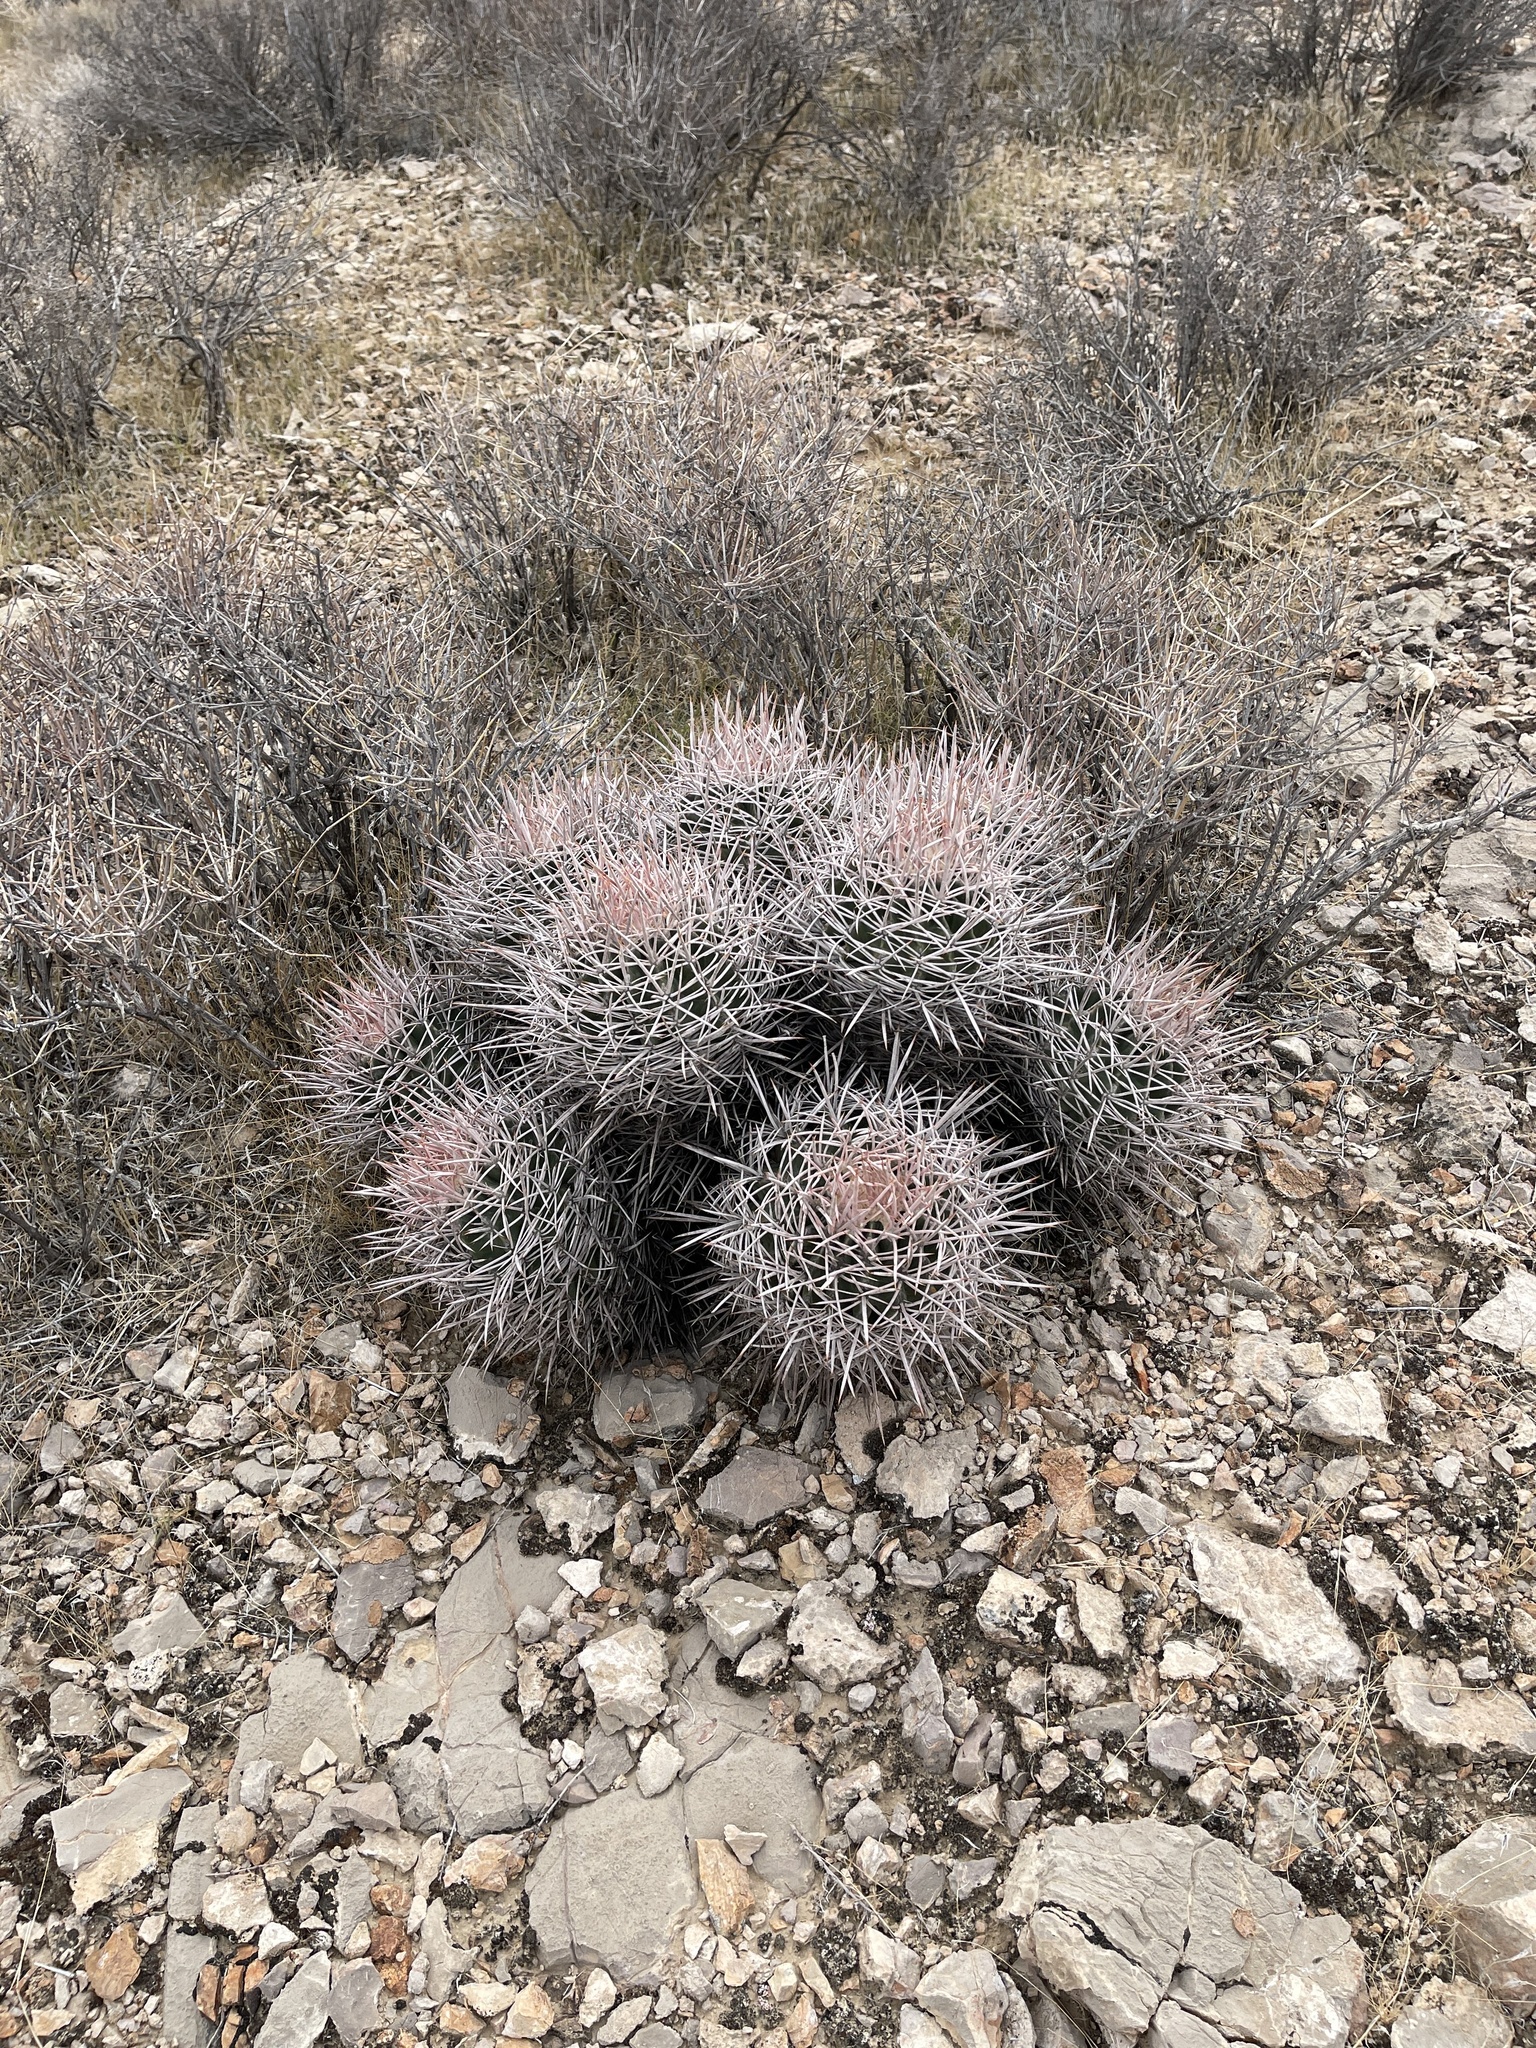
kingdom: Plantae
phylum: Tracheophyta
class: Magnoliopsida
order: Caryophyllales
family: Cactaceae
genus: Echinocactus
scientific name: Echinocactus polycephalus
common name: Cottontop cactus
